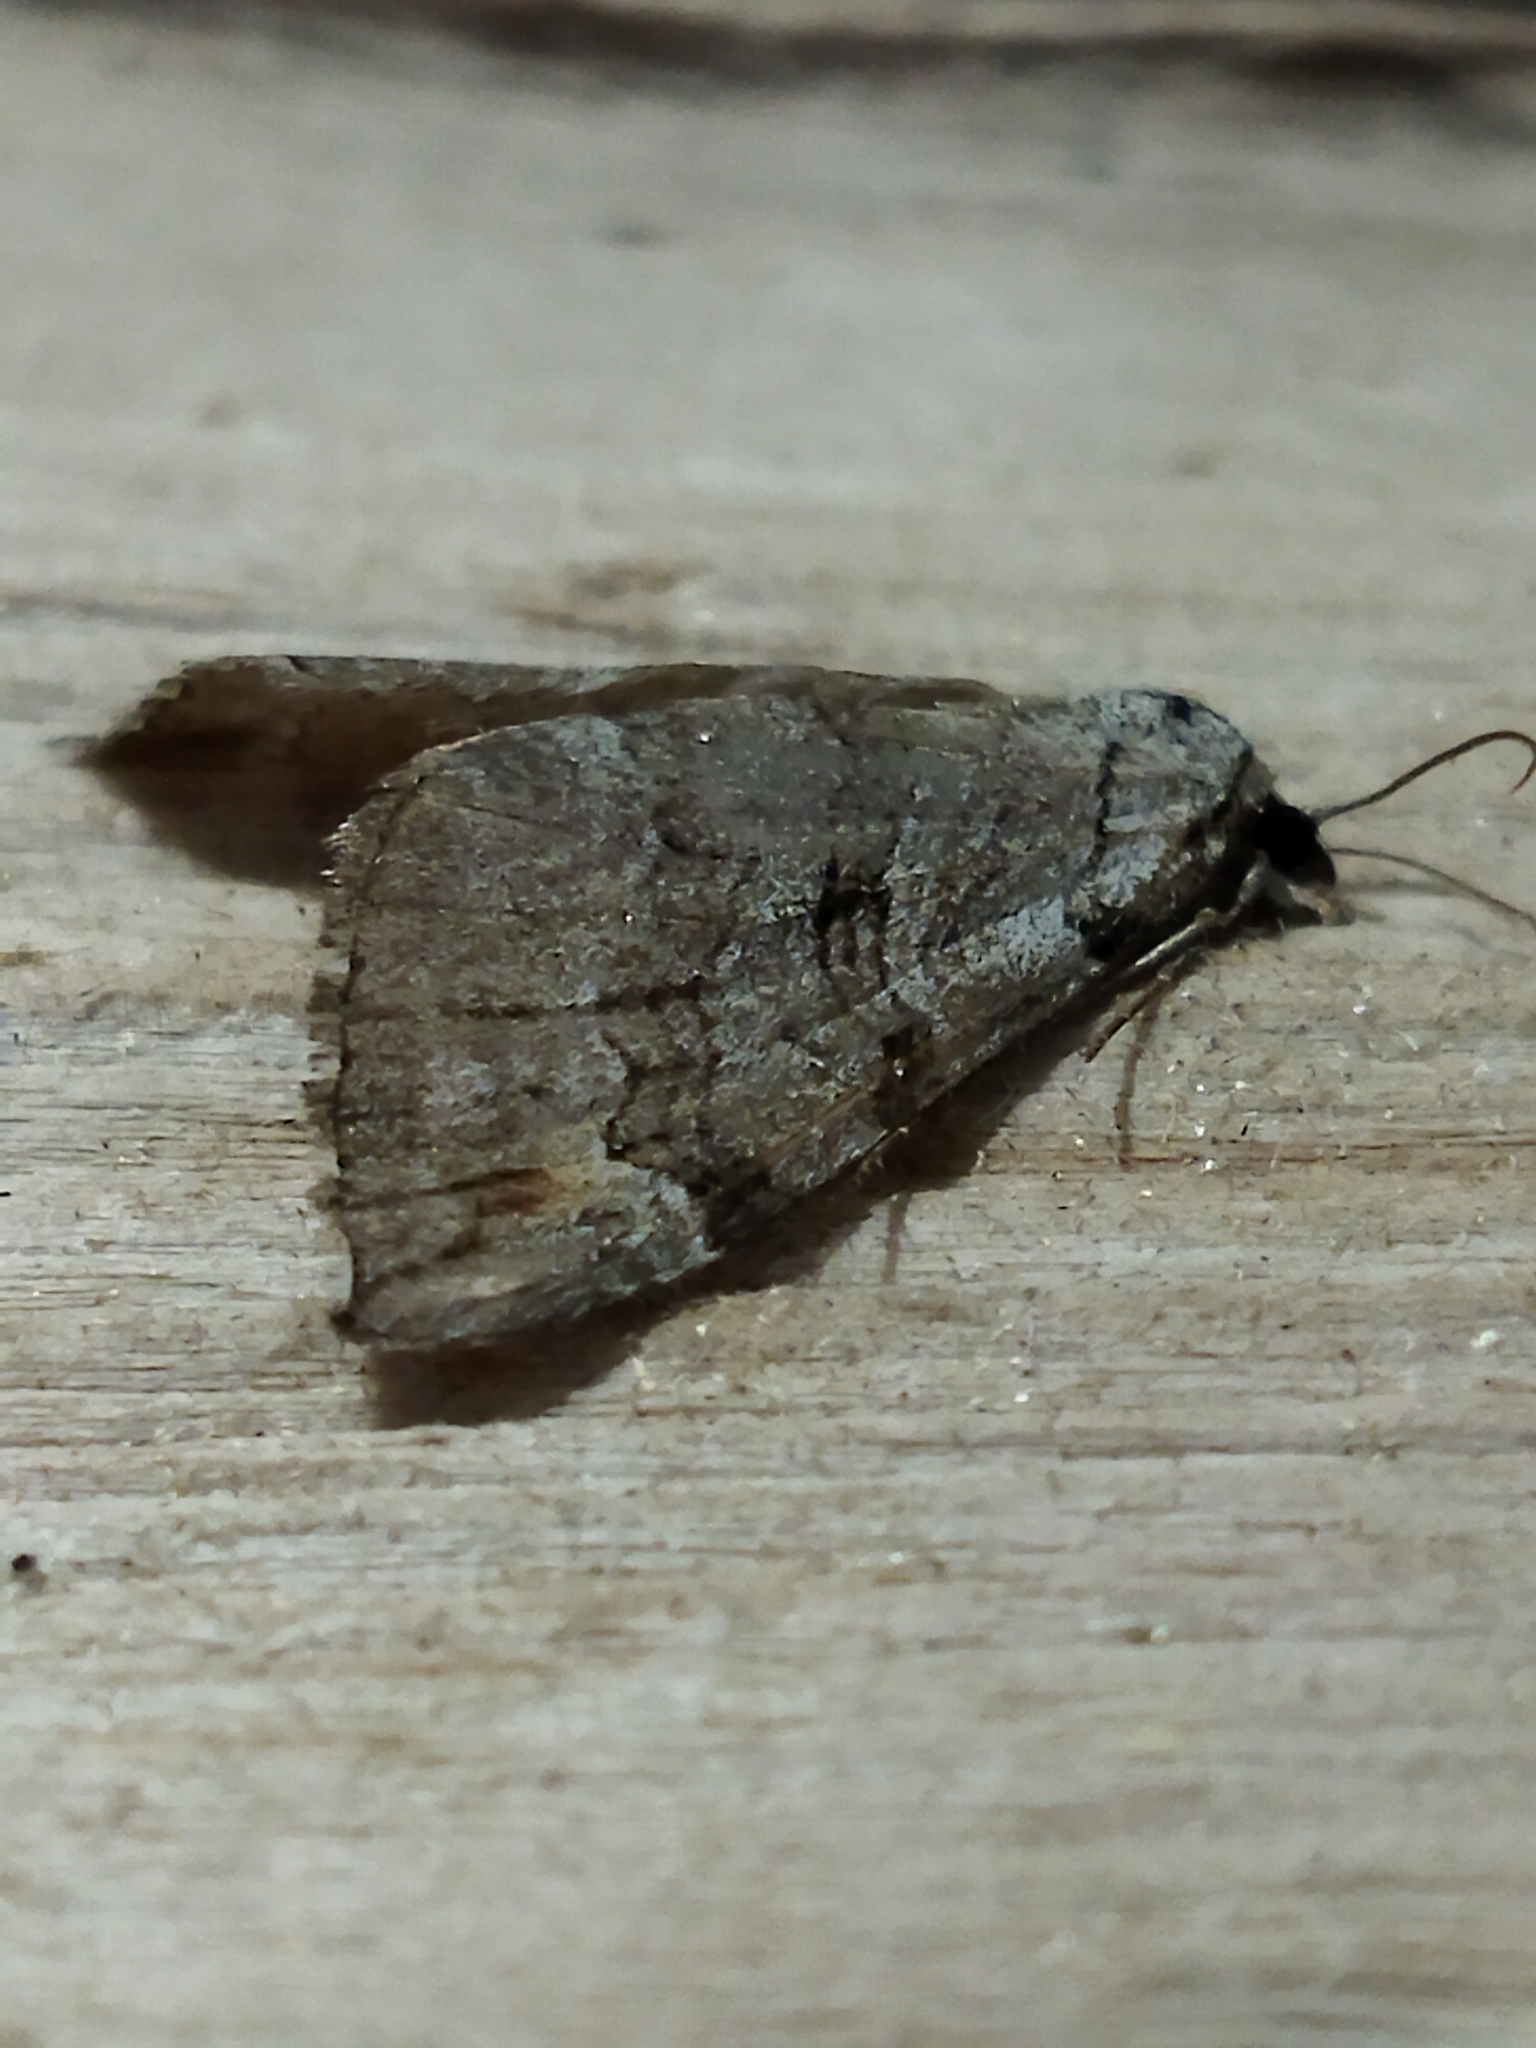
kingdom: Animalia
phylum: Arthropoda
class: Insecta
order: Lepidoptera
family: Geometridae
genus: Aplocera
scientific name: Aplocera plagiata
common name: Treble-bar
